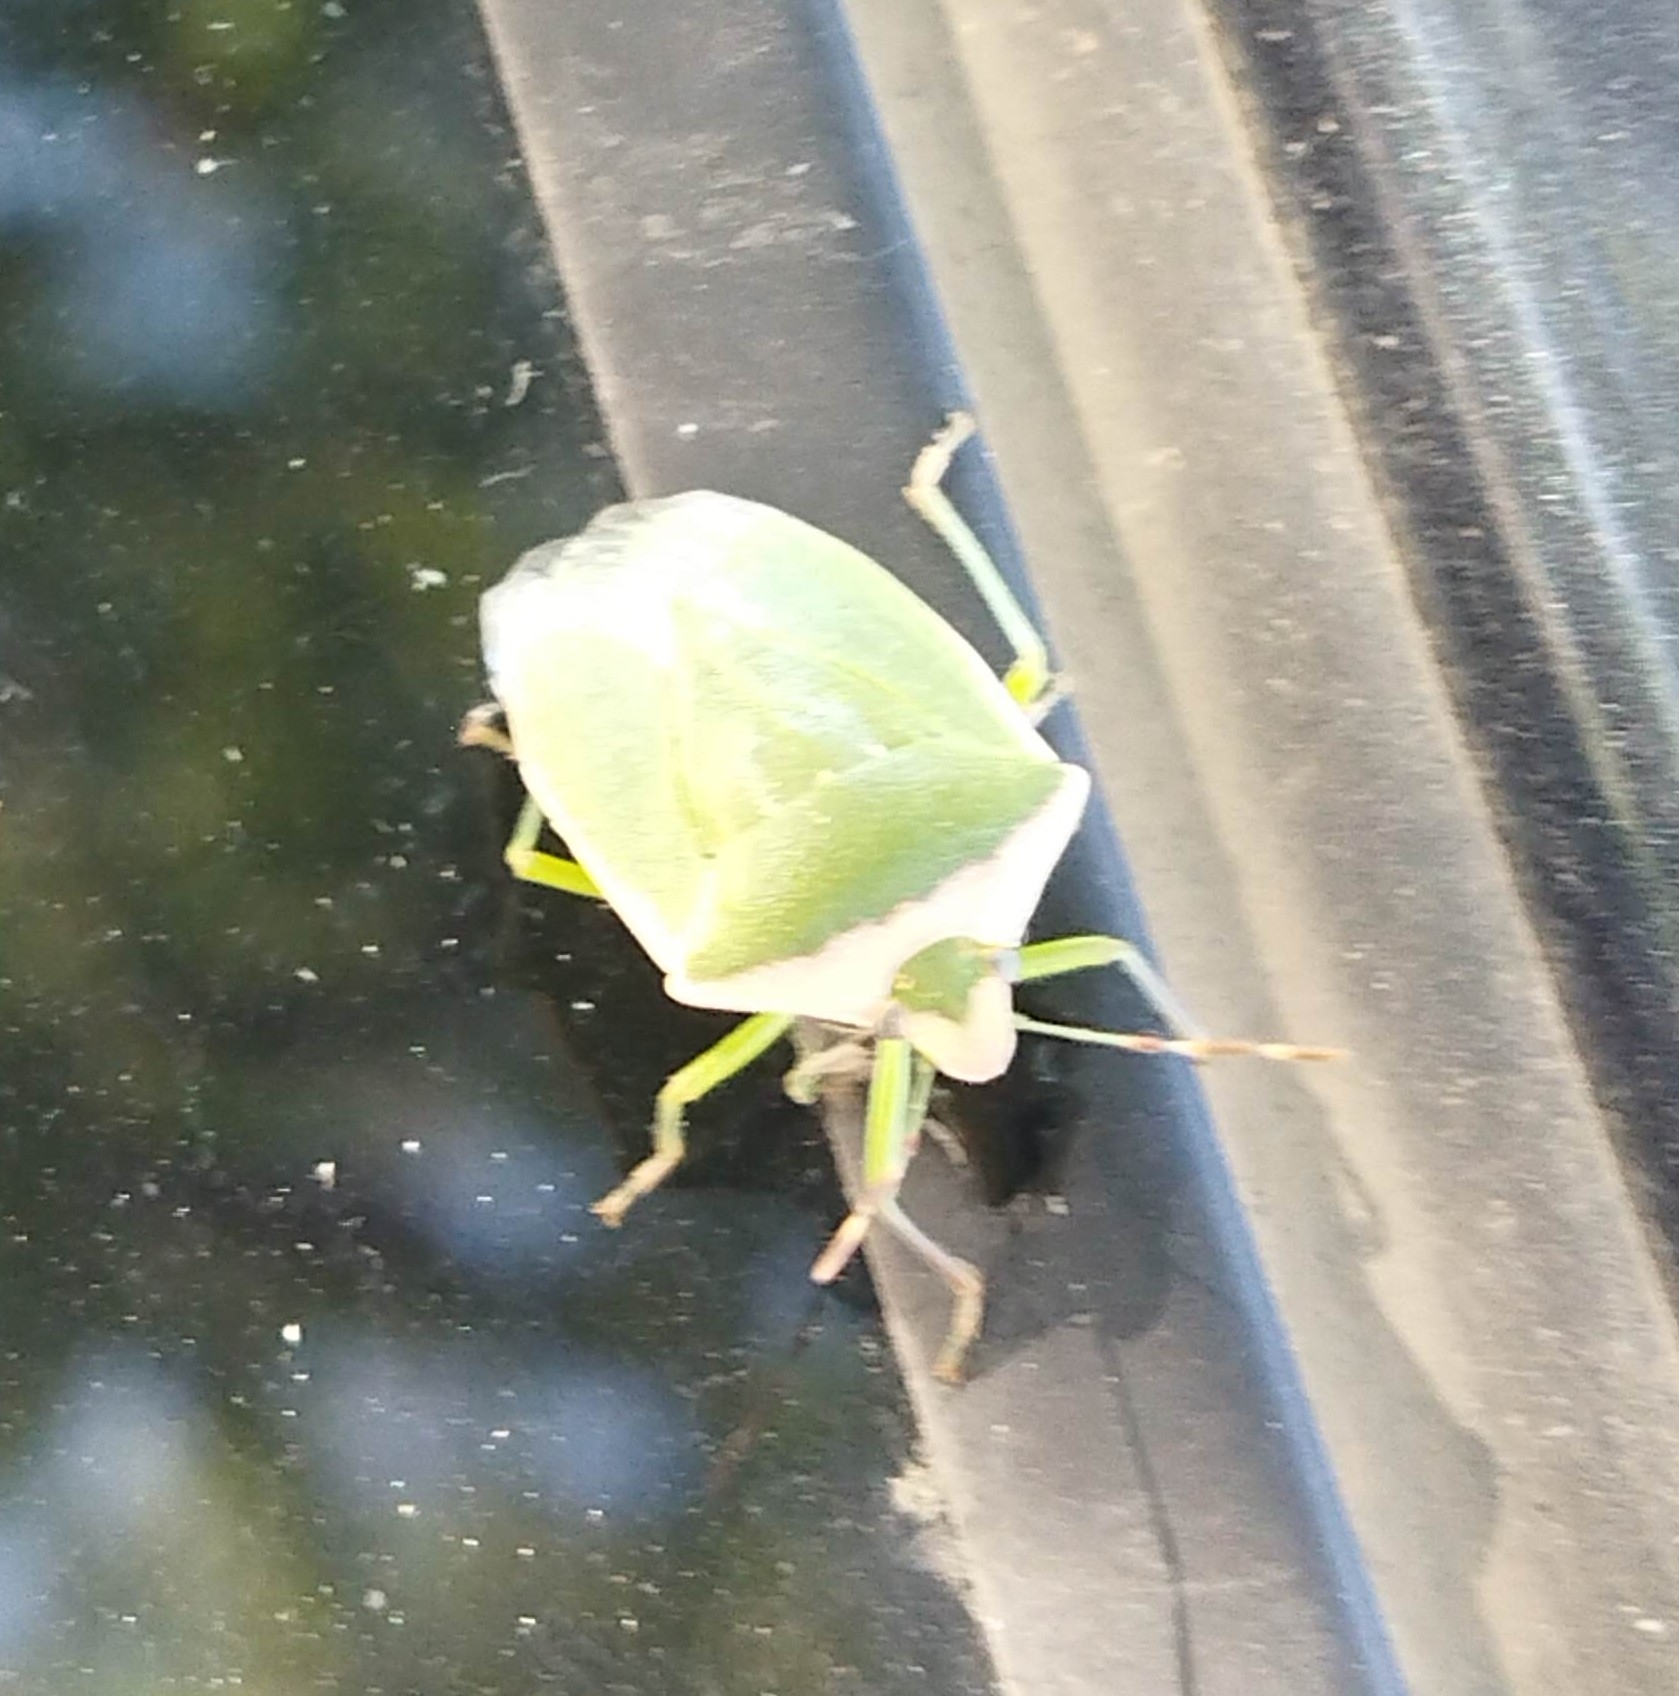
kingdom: Animalia
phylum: Arthropoda
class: Insecta
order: Hemiptera
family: Pentatomidae
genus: Nezara
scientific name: Nezara viridula
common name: Southern green stink bug
